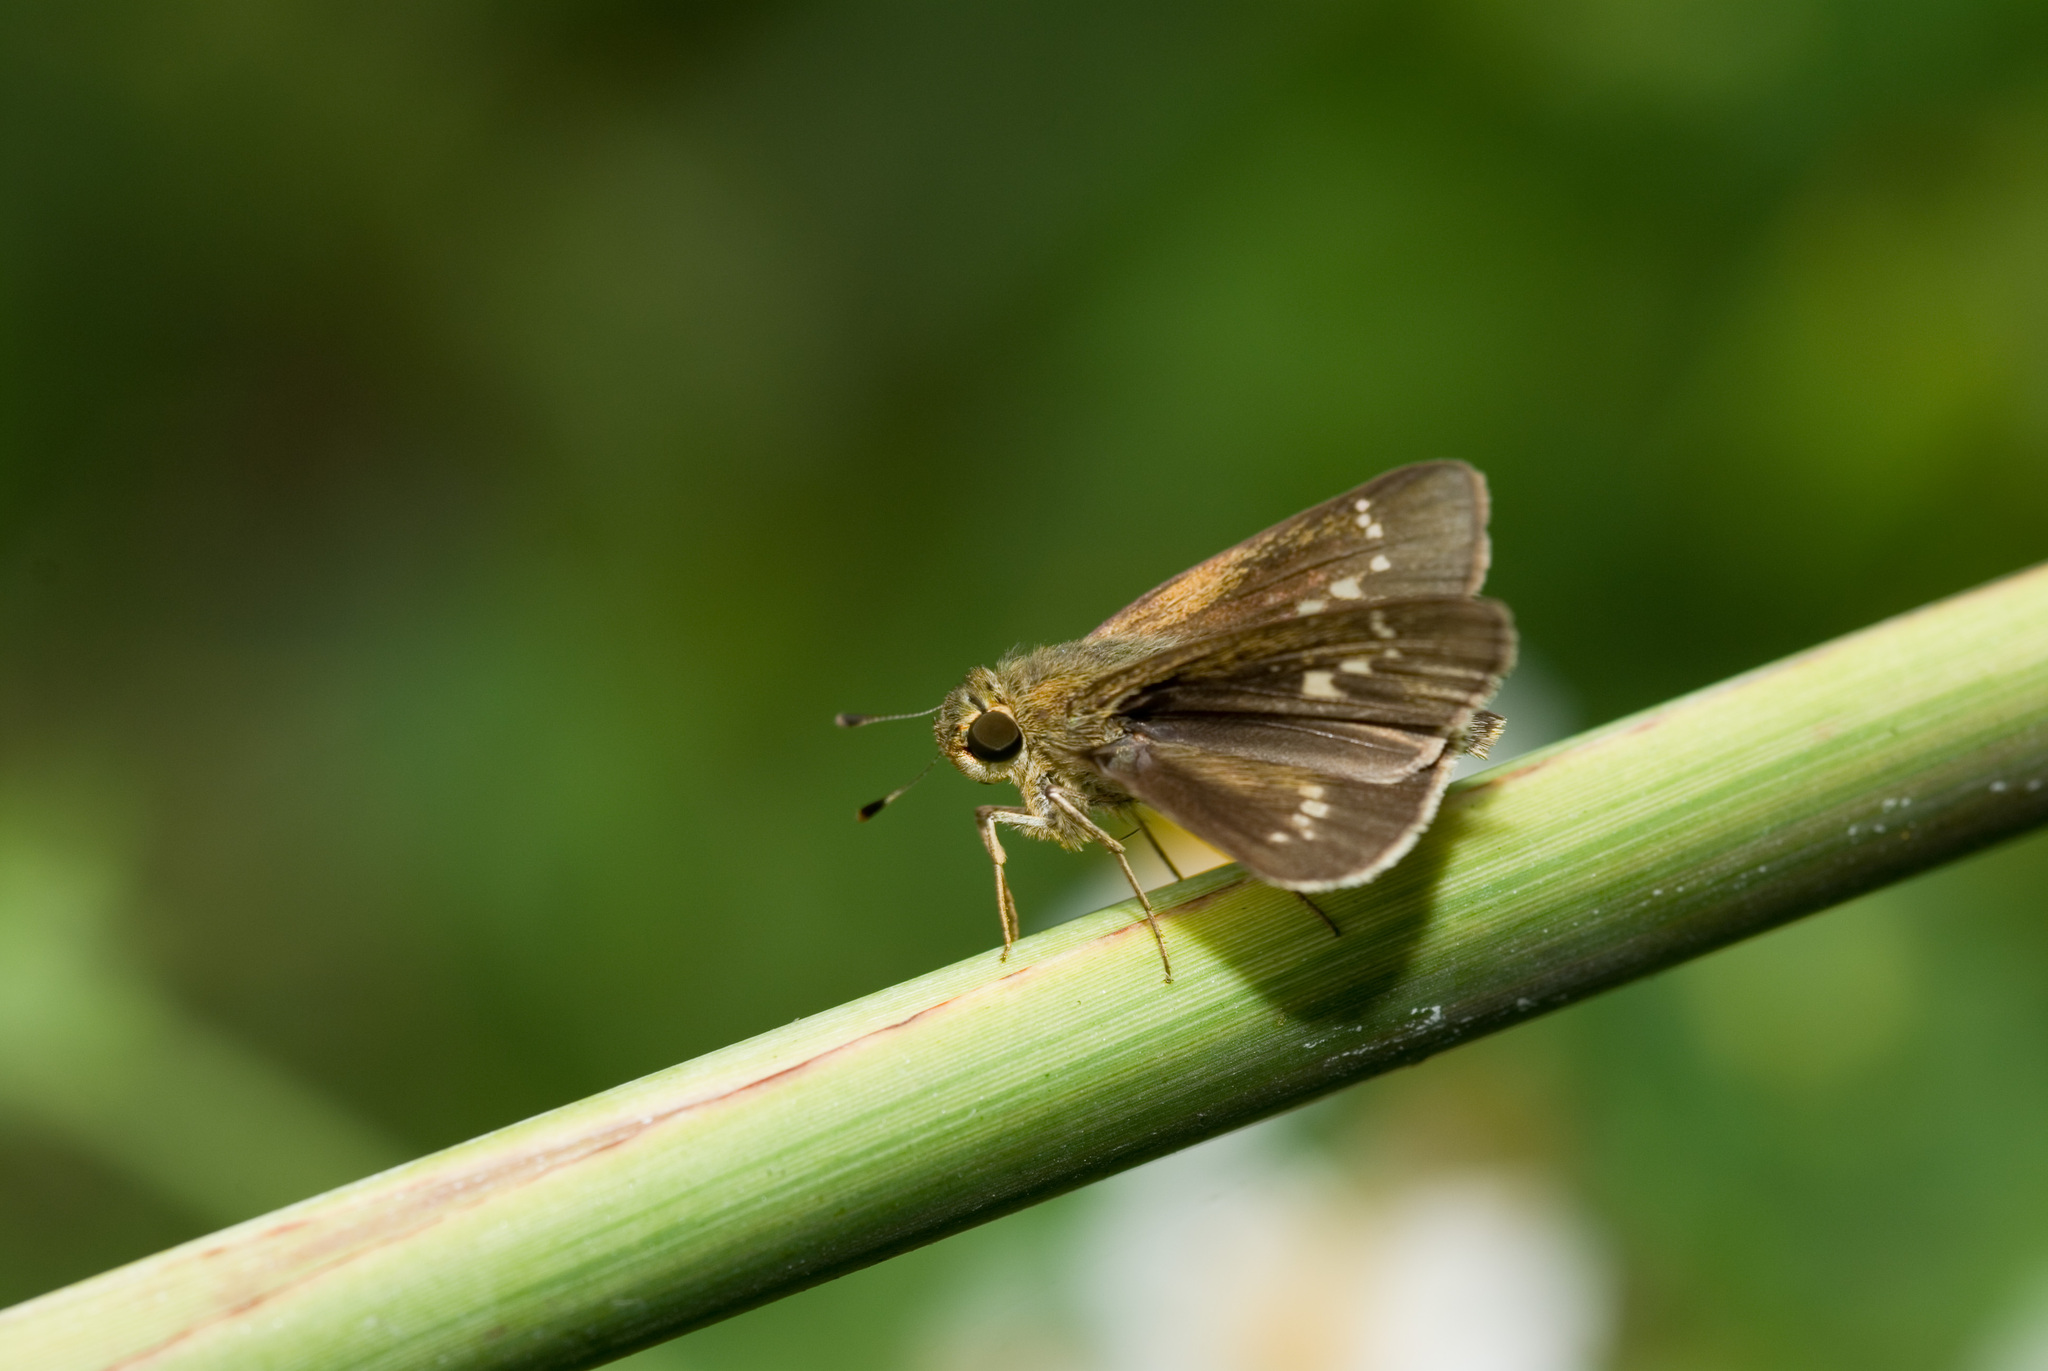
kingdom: Animalia
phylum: Arthropoda
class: Insecta
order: Lepidoptera
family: Hesperiidae
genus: Parnara
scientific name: Parnara naso
